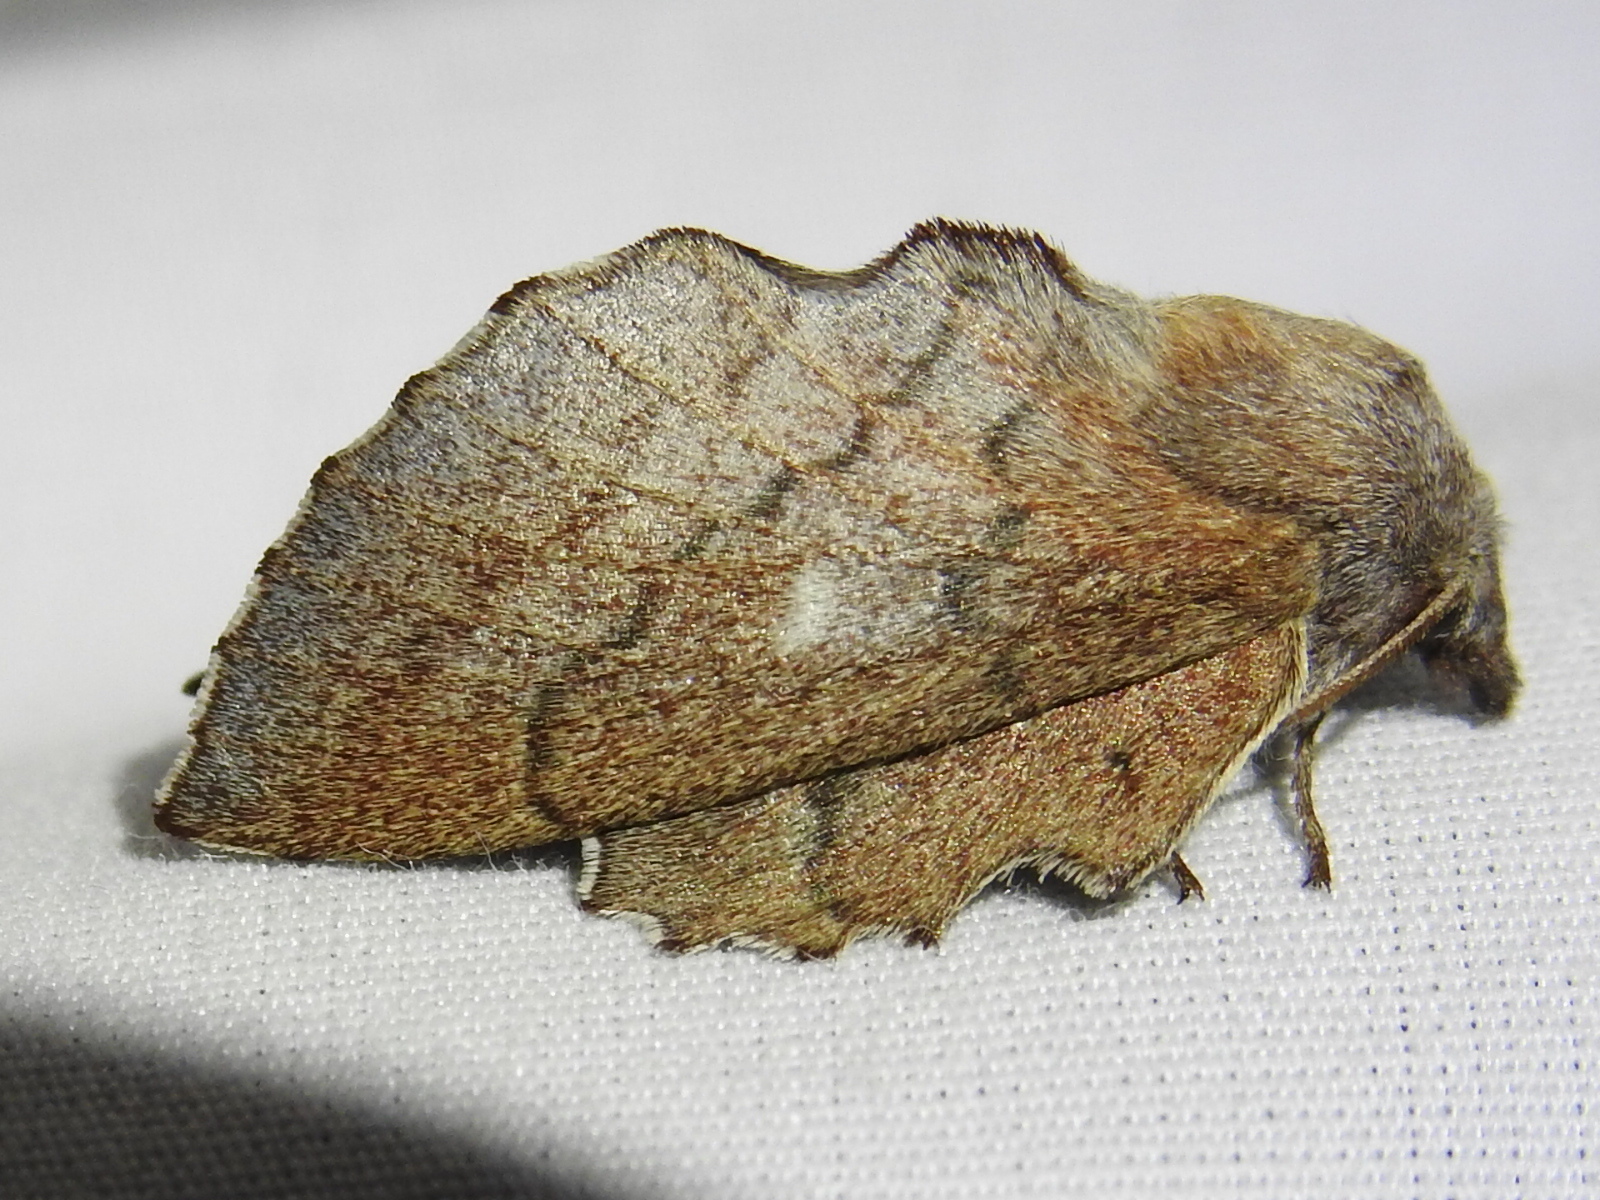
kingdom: Animalia
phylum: Arthropoda
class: Insecta
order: Lepidoptera
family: Lasiocampidae
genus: Phyllodesma
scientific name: Phyllodesma americana
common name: American lappet moth
